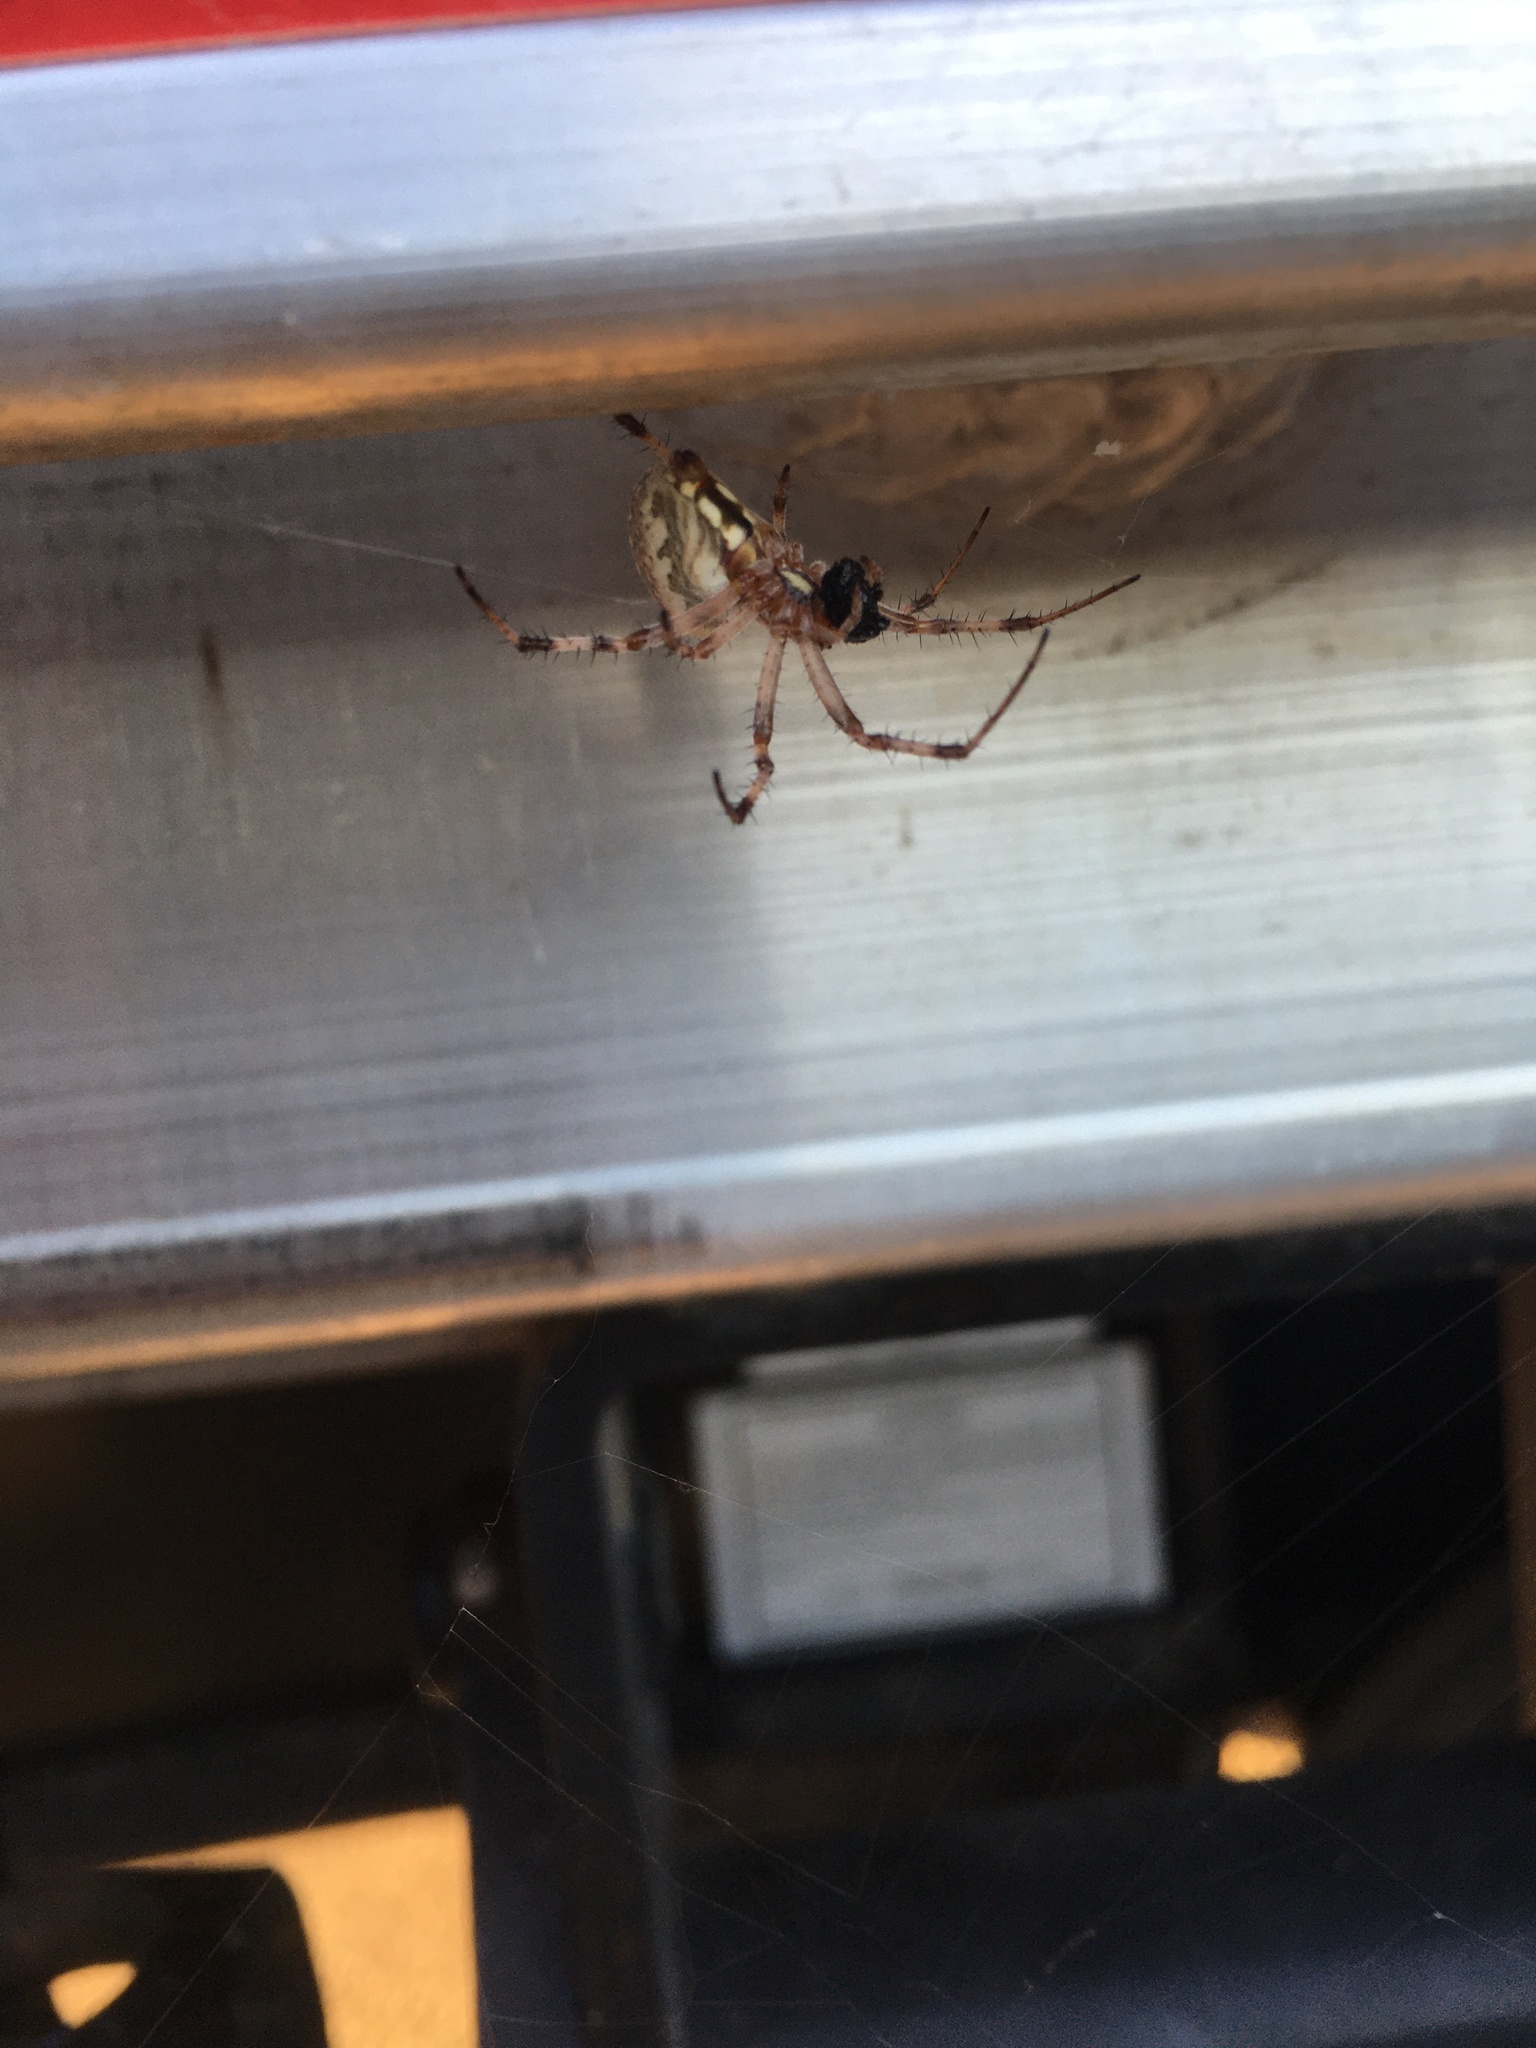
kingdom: Animalia
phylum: Arthropoda
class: Arachnida
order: Araneae
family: Araneidae
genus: Neoscona
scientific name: Neoscona oaxacensis
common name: Orb weavers
